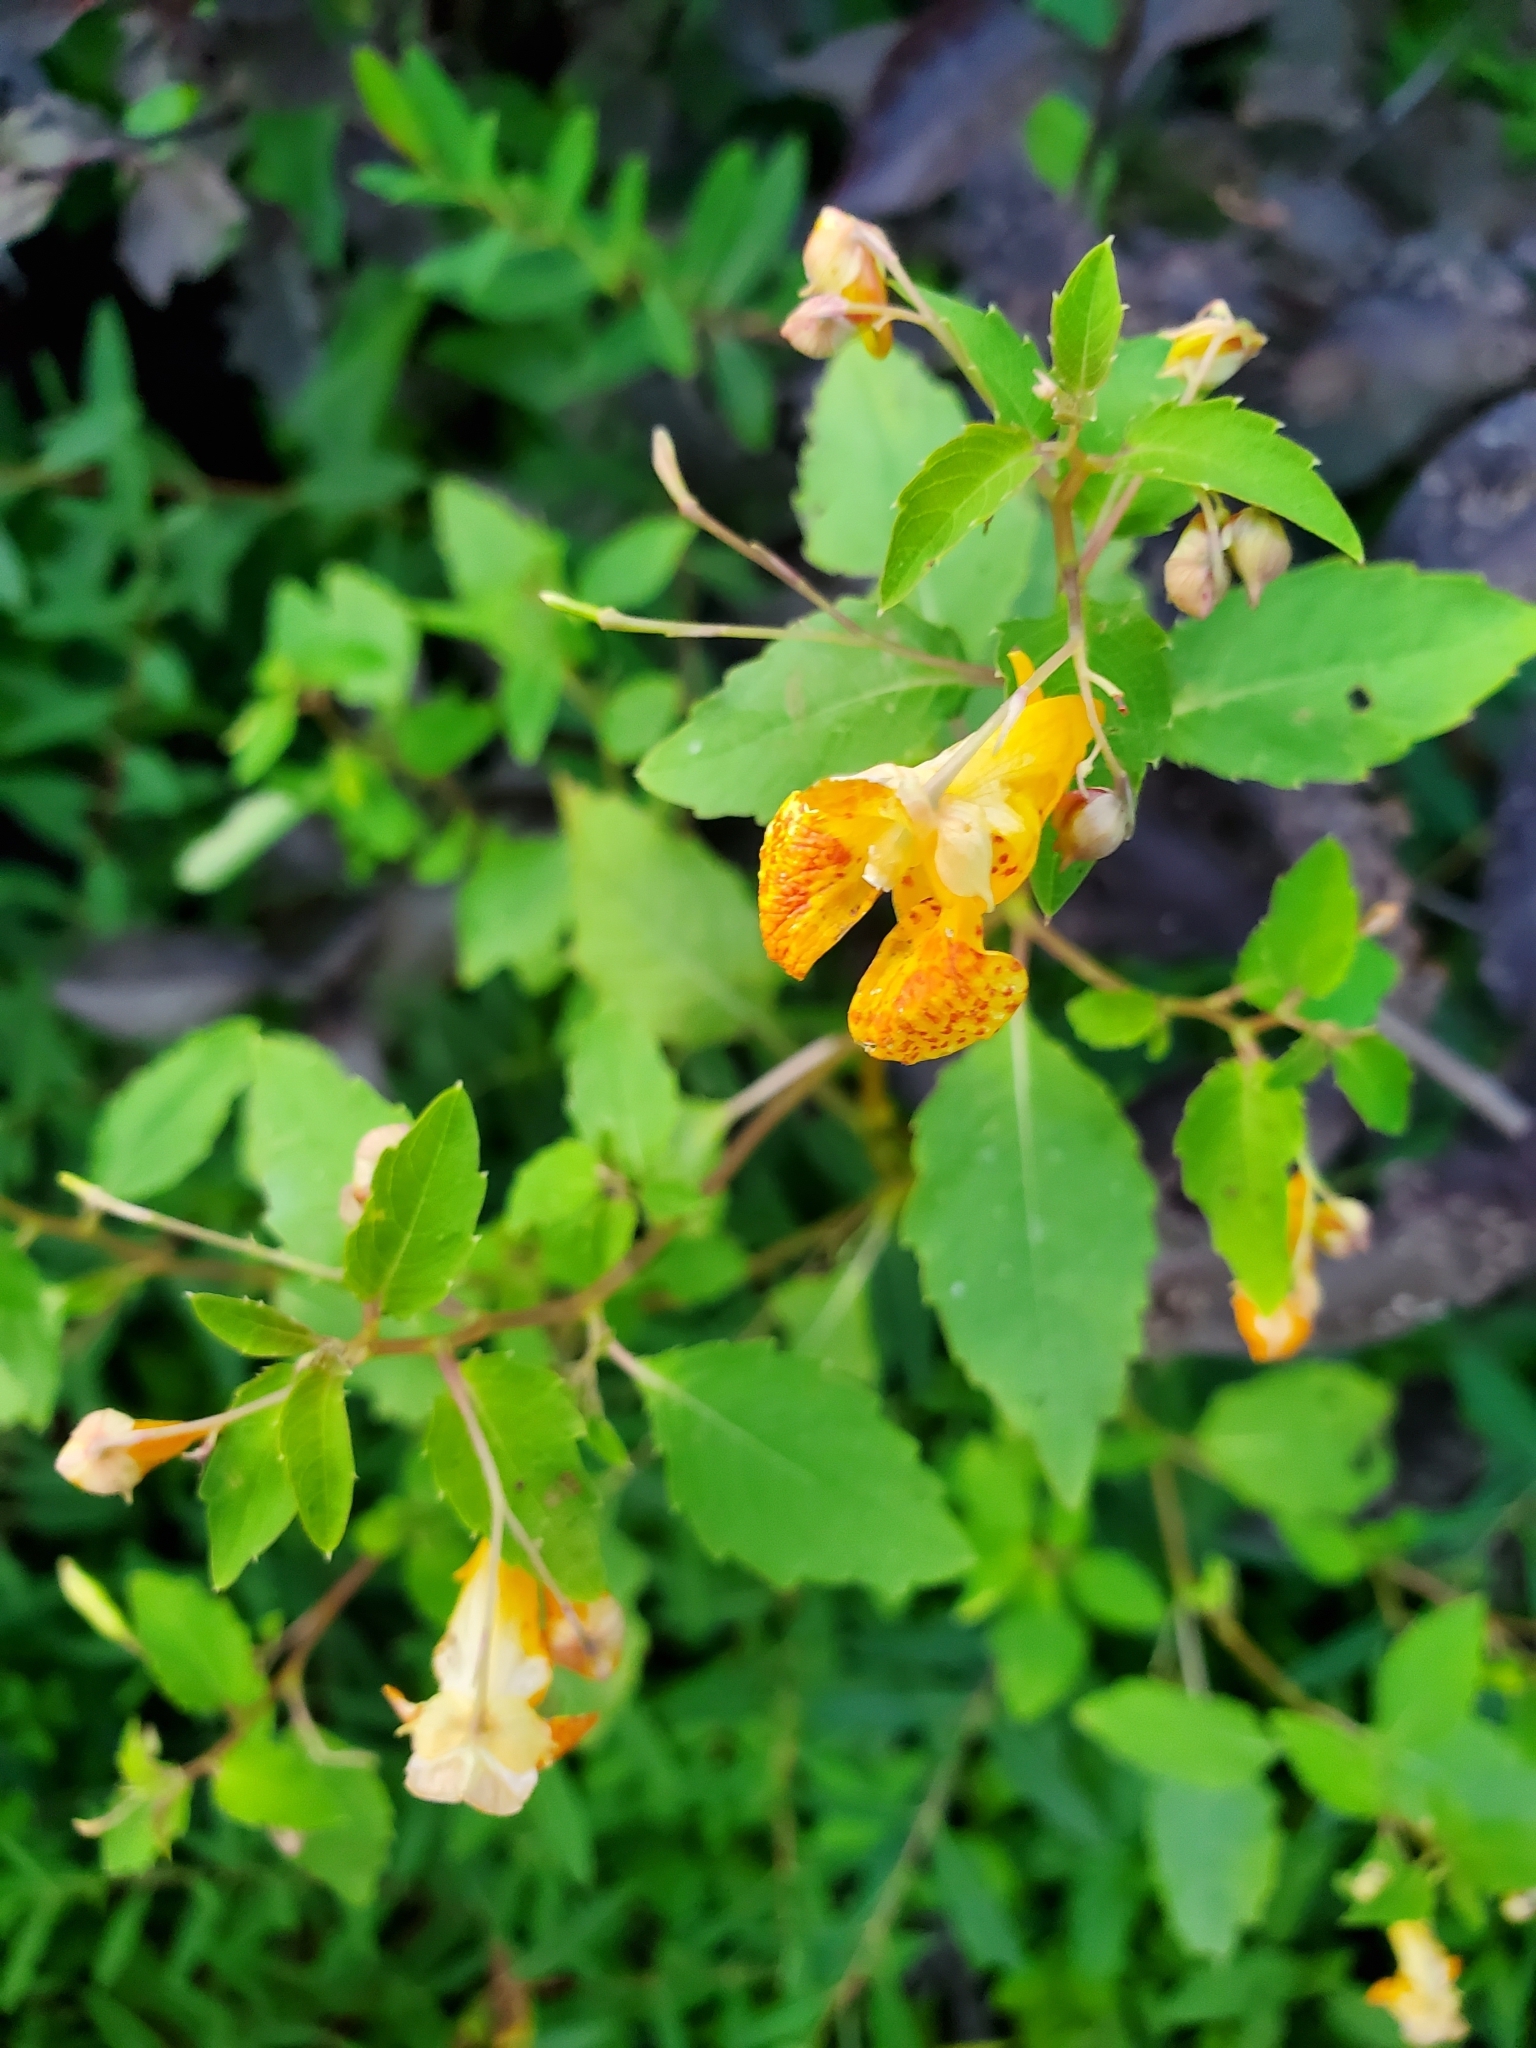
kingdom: Plantae
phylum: Tracheophyta
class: Magnoliopsida
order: Ericales
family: Balsaminaceae
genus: Impatiens
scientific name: Impatiens capensis
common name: Orange balsam
